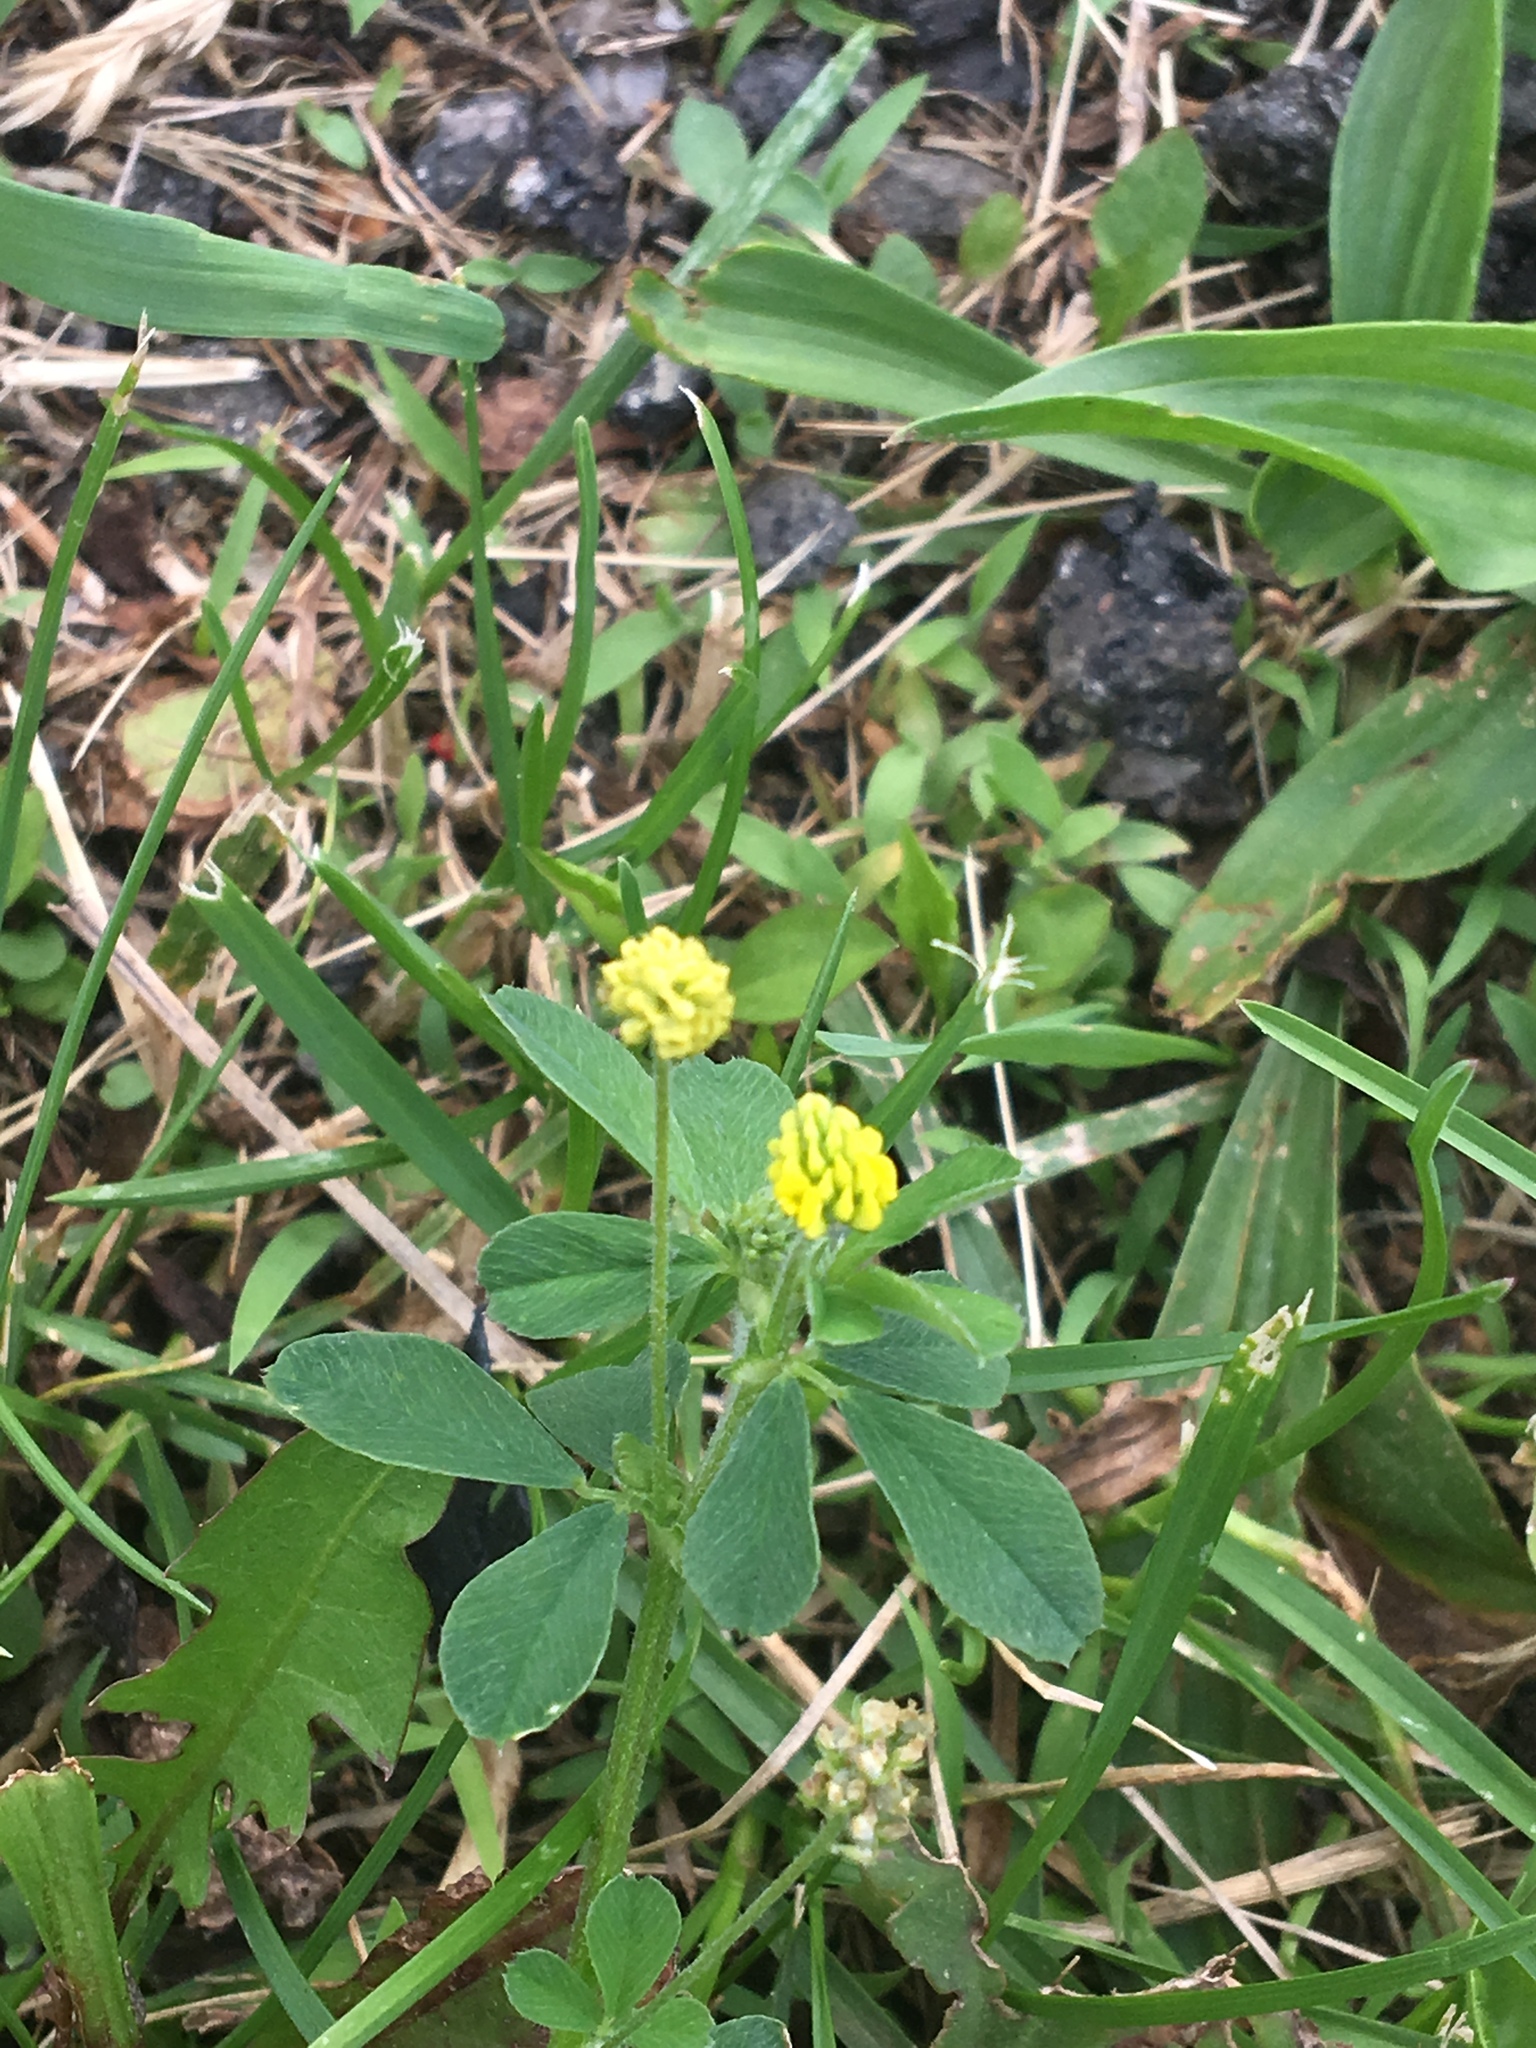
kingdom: Plantae
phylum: Tracheophyta
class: Magnoliopsida
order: Fabales
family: Fabaceae
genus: Medicago
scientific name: Medicago lupulina
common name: Black medick
